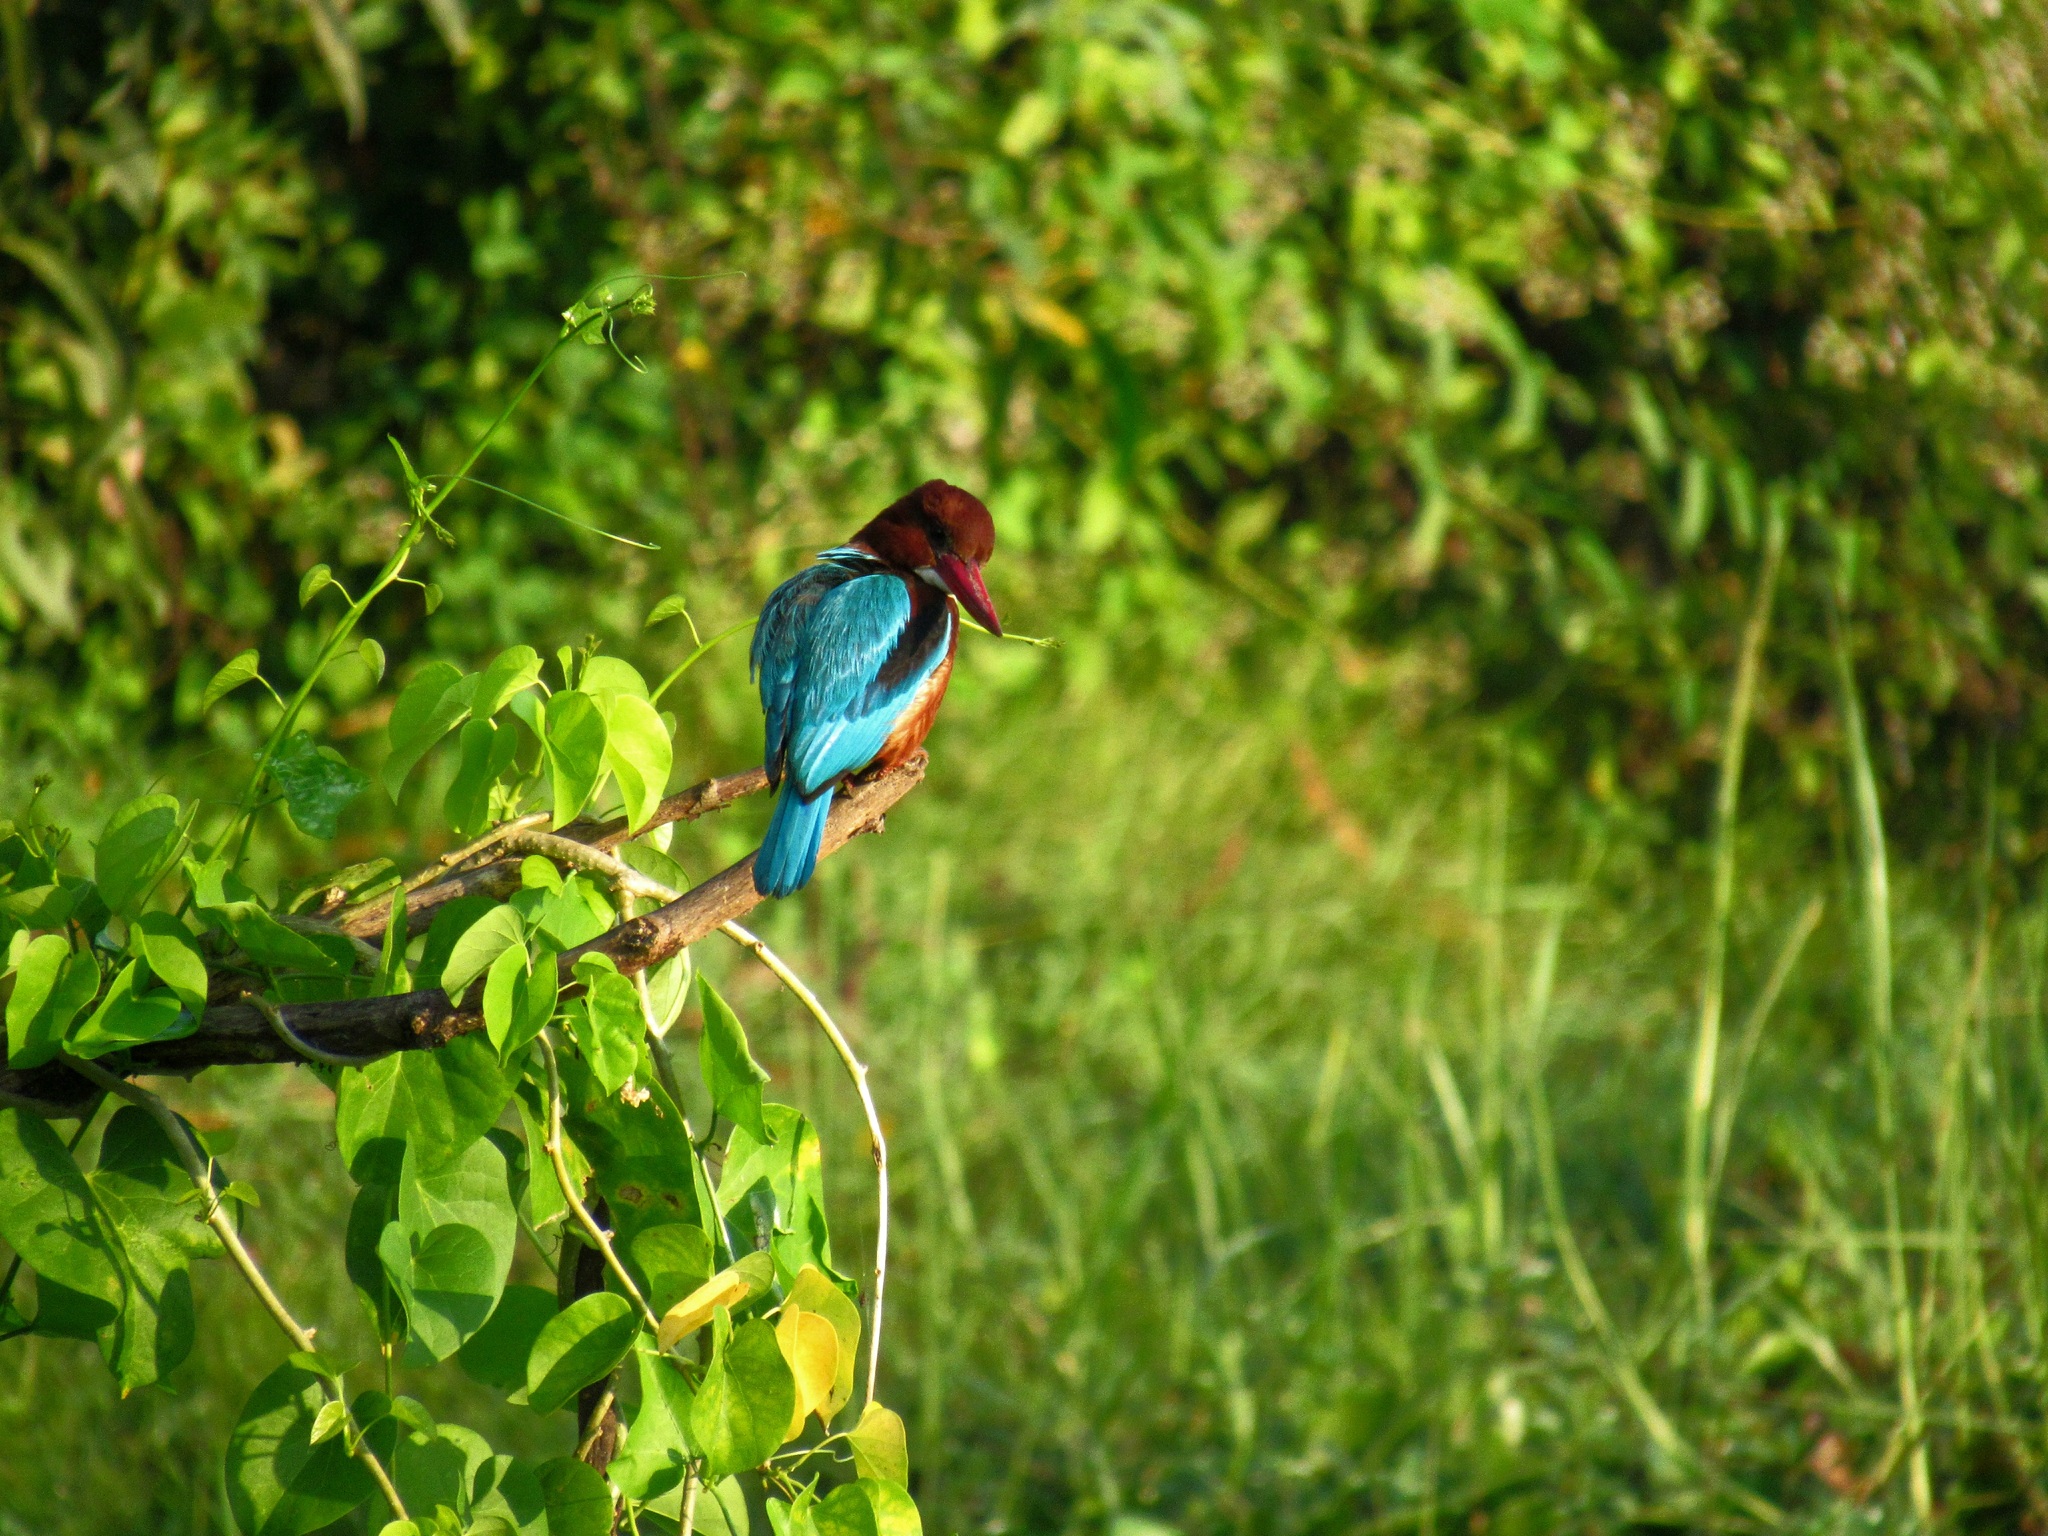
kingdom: Animalia
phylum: Chordata
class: Aves
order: Coraciiformes
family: Alcedinidae
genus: Halcyon
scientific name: Halcyon smyrnensis
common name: White-throated kingfisher
